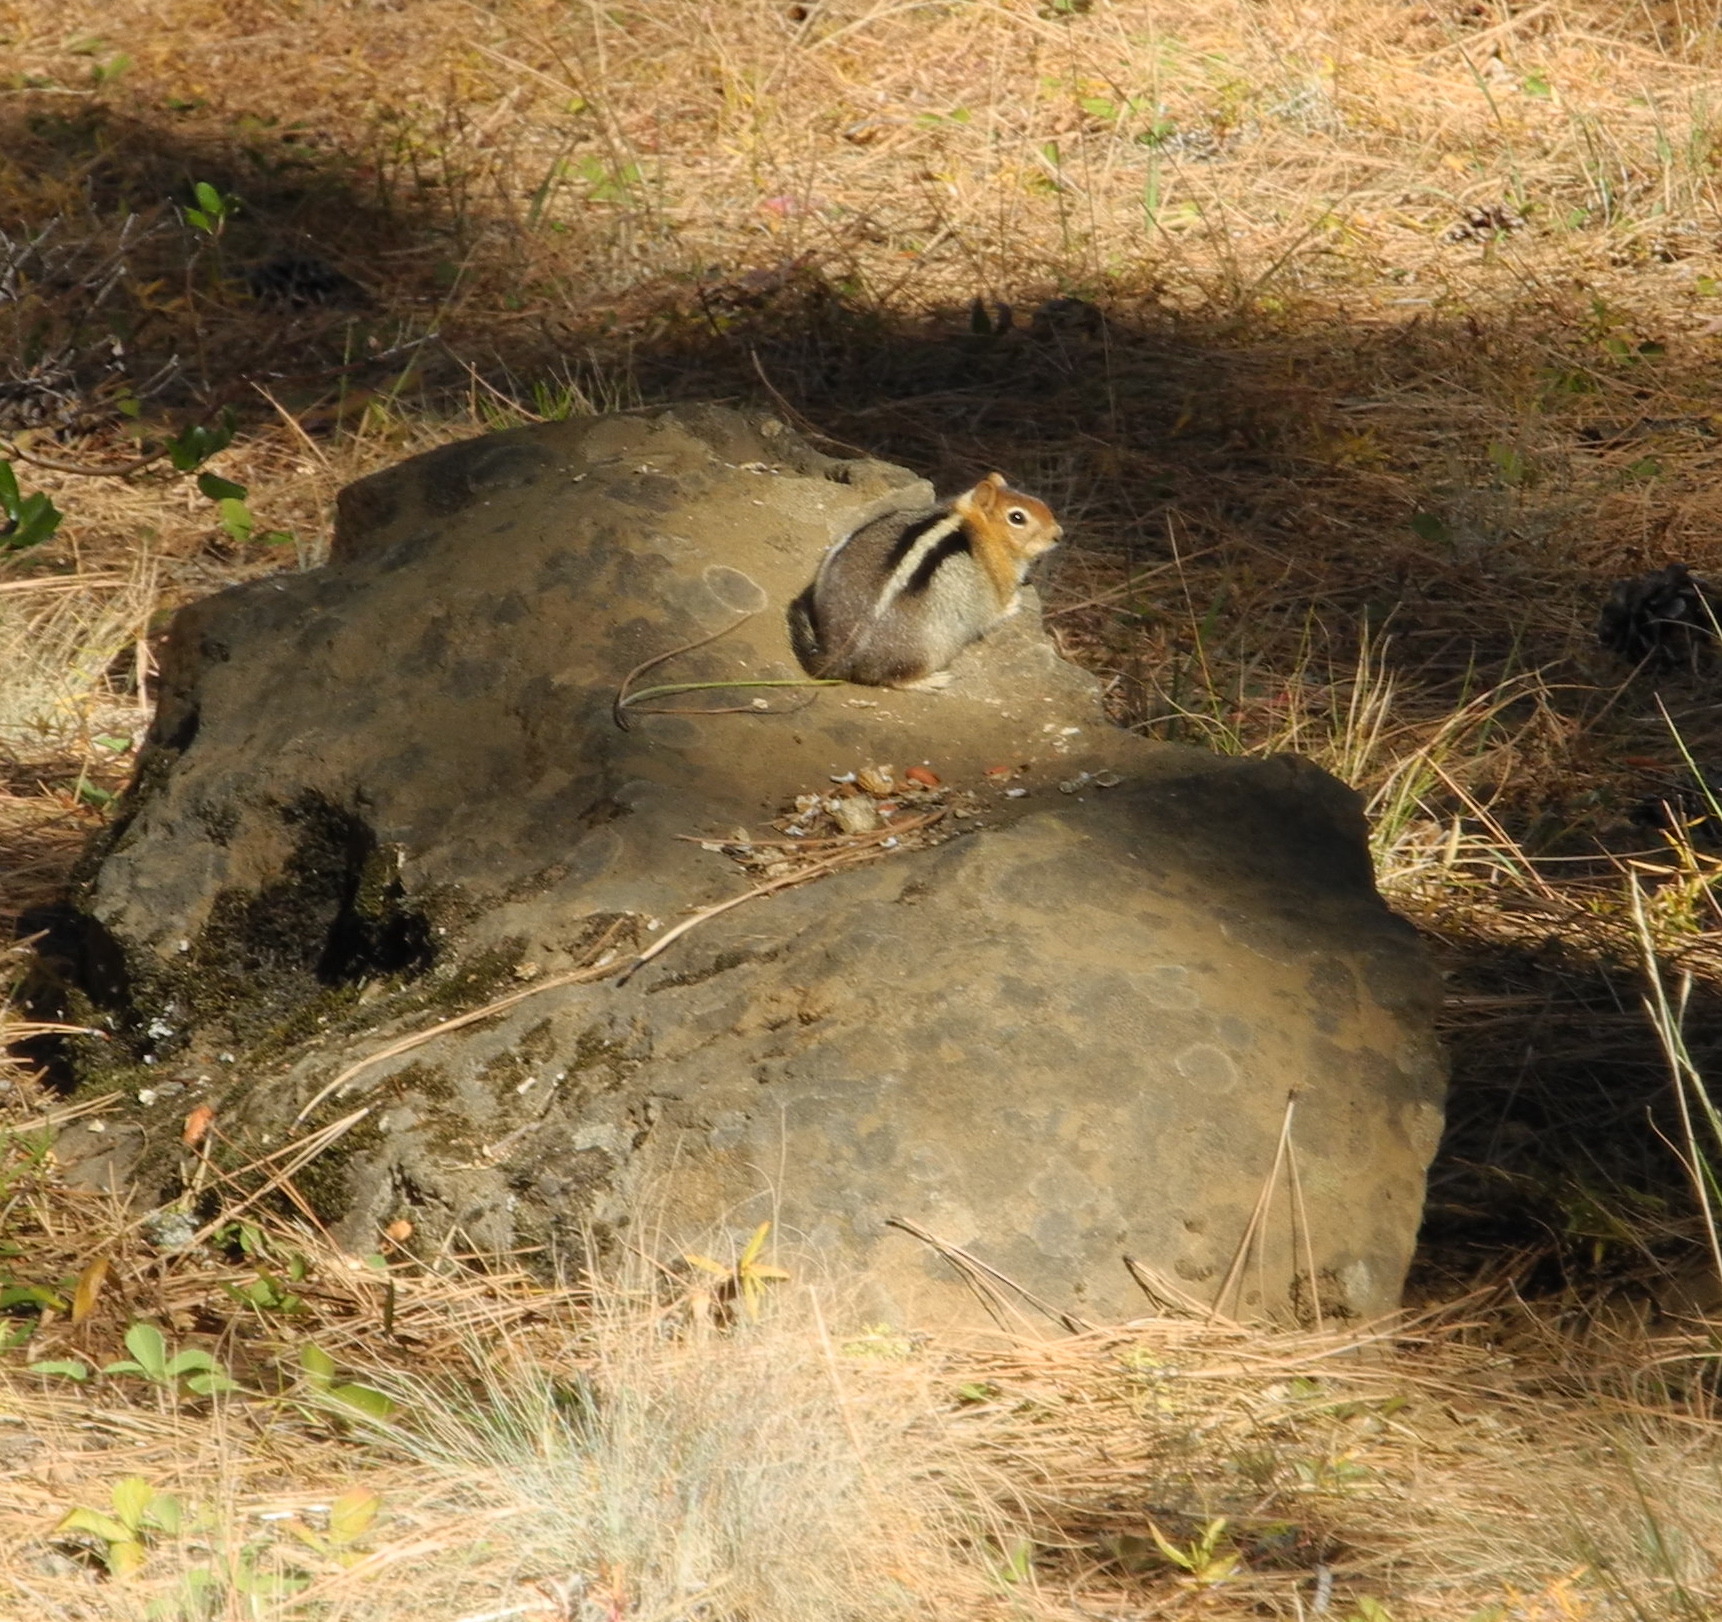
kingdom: Animalia
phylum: Chordata
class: Mammalia
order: Rodentia
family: Sciuridae
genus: Callospermophilus
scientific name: Callospermophilus lateralis
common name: Golden-mantled ground squirrel
